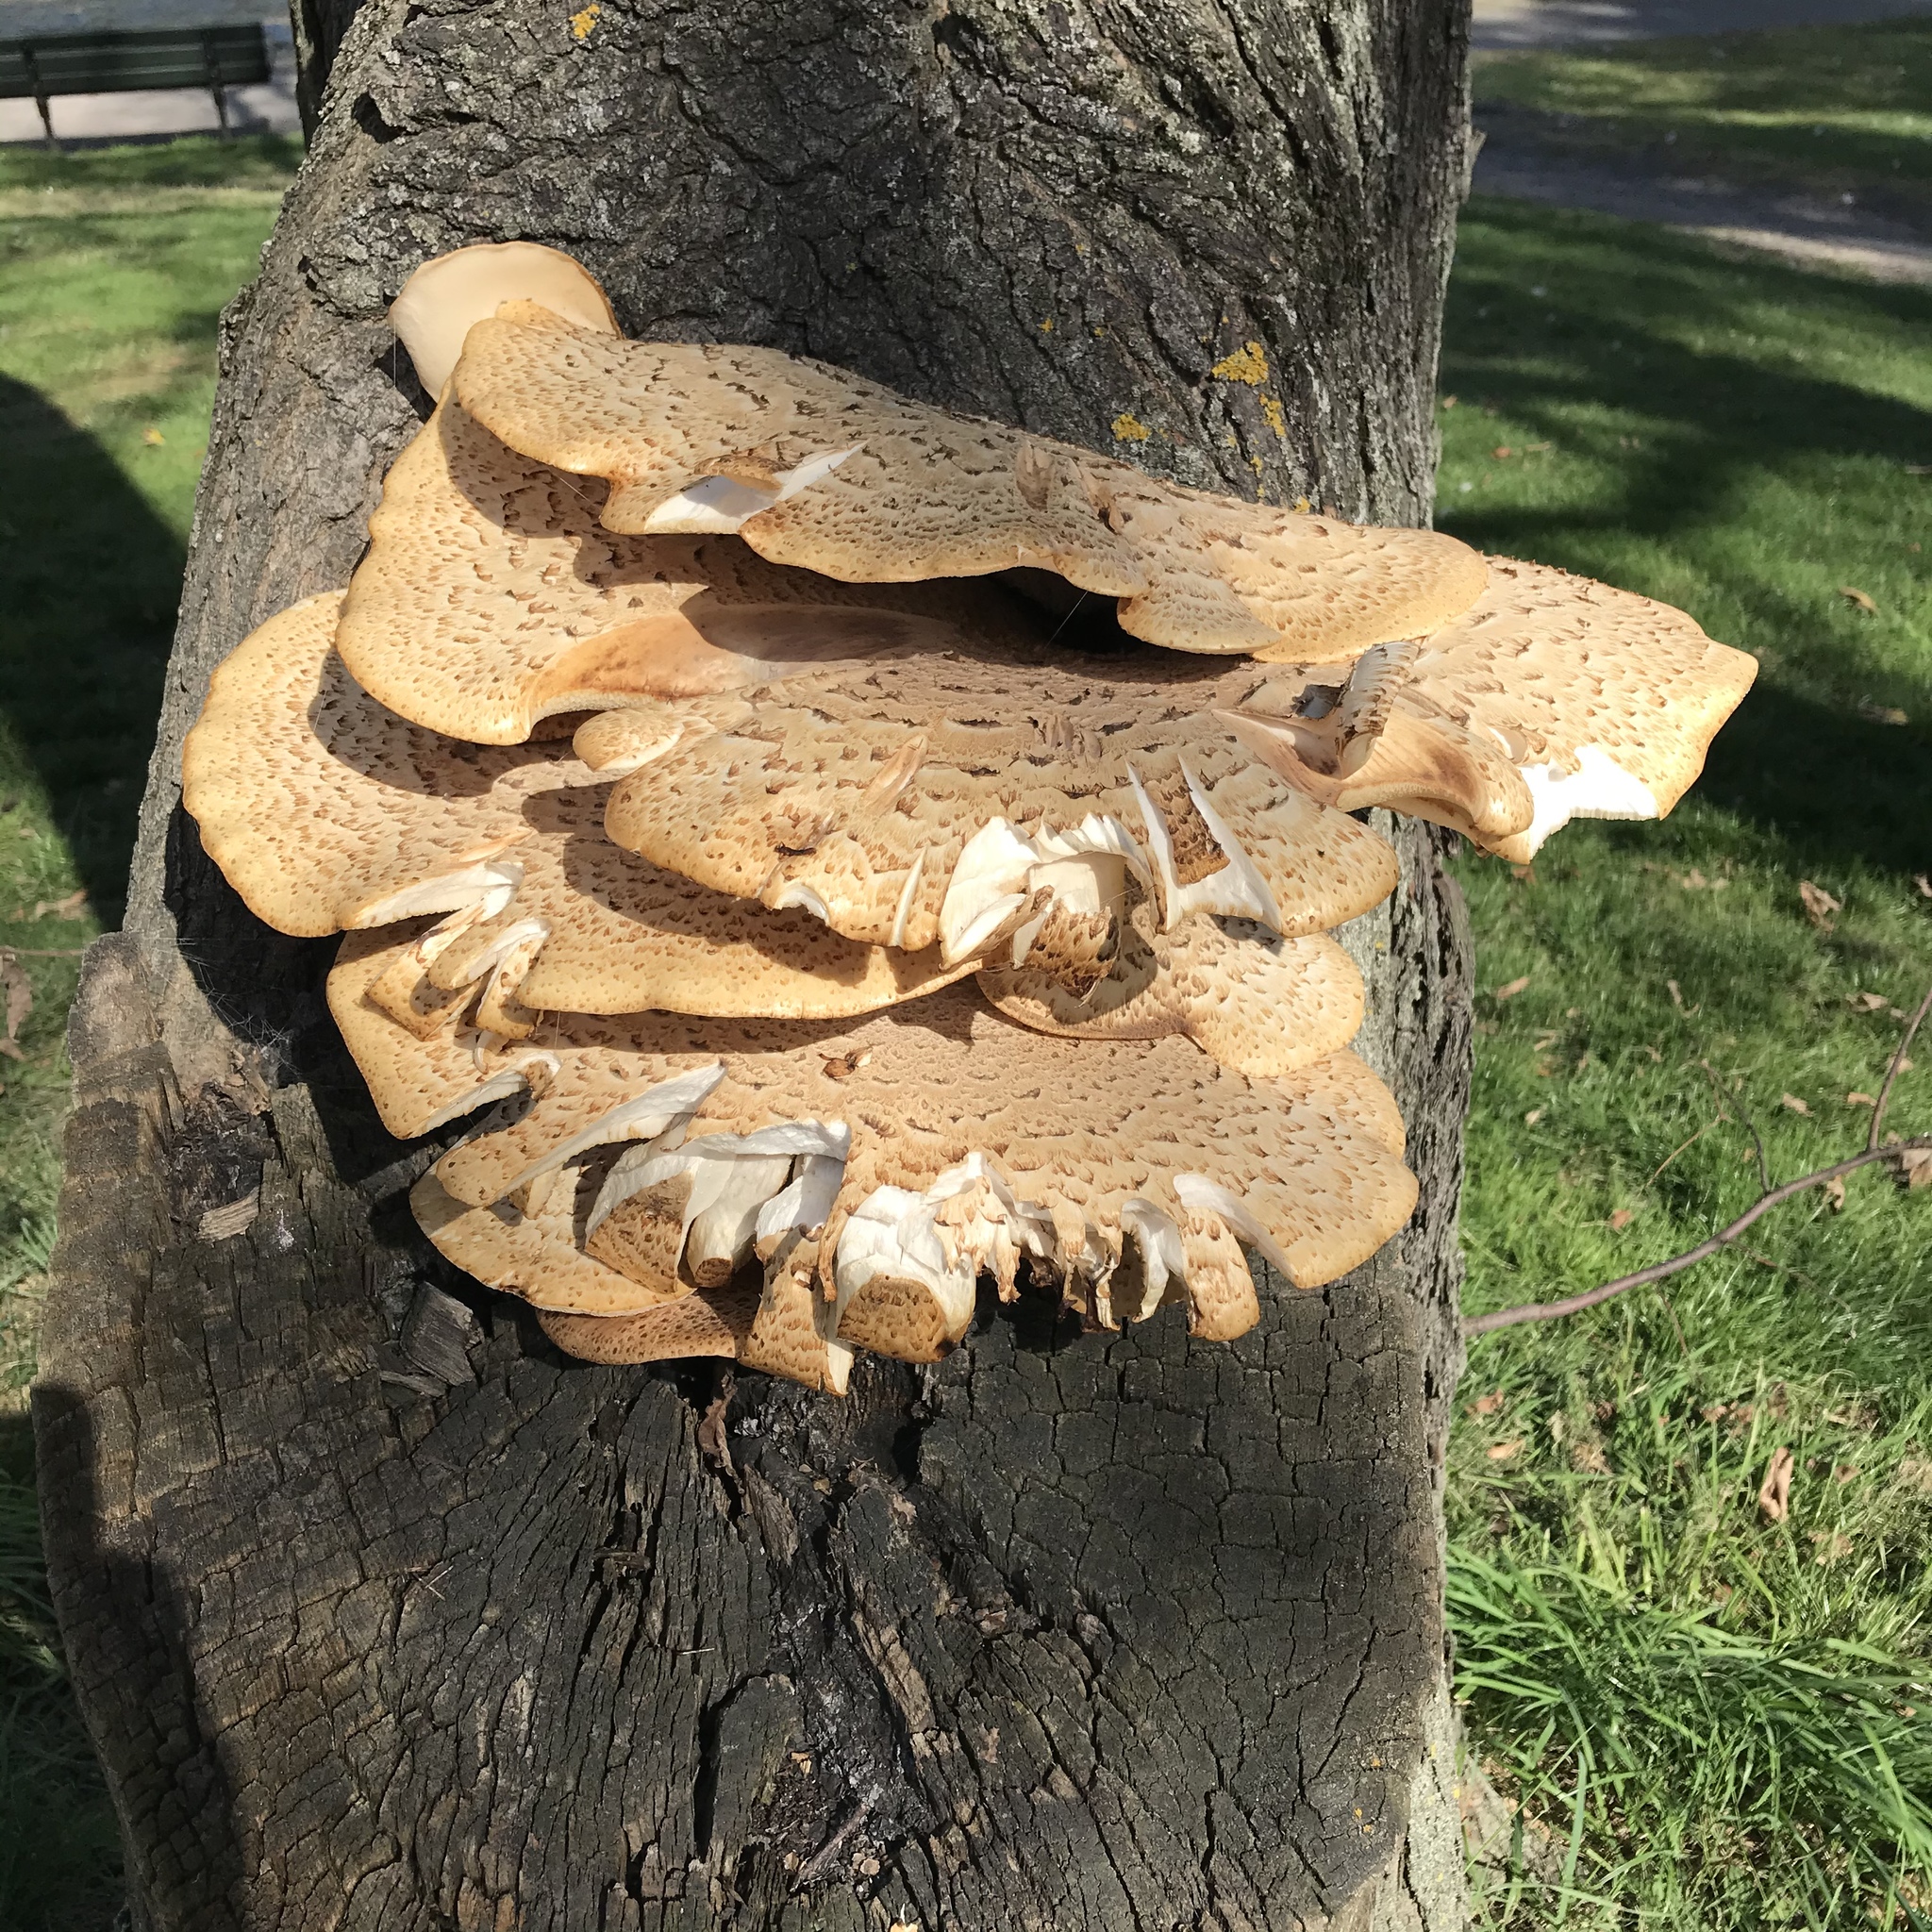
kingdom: Fungi
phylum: Basidiomycota
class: Agaricomycetes
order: Polyporales
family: Polyporaceae
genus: Cerioporus
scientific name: Cerioporus squamosus
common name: Dryad's saddle
